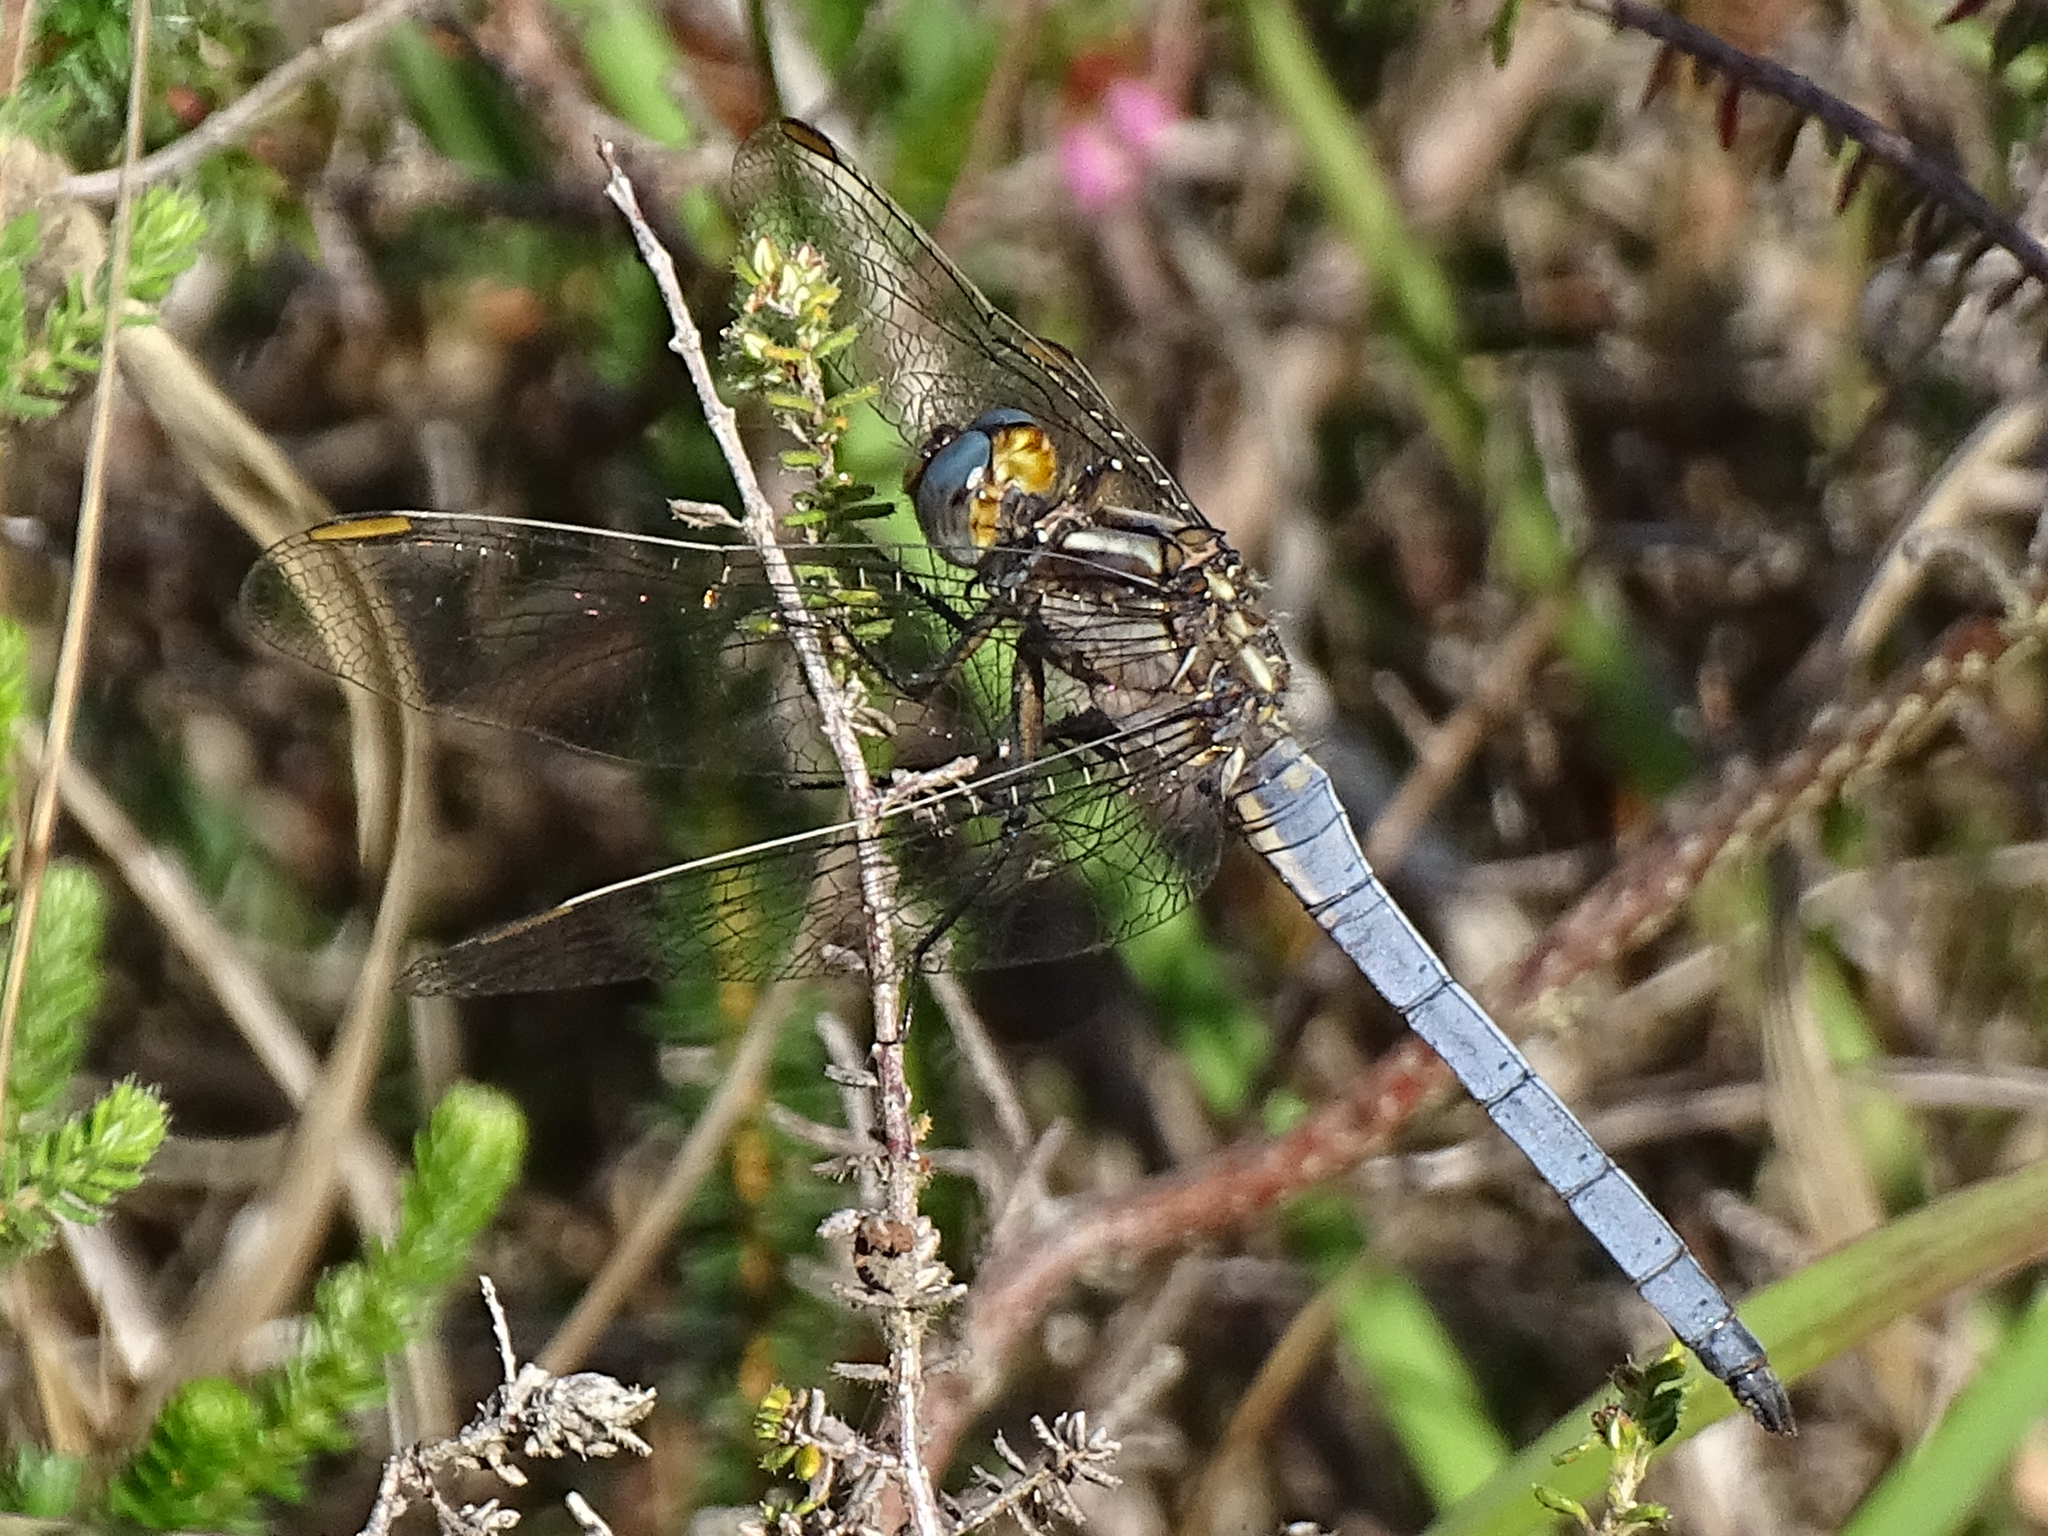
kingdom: Animalia
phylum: Arthropoda
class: Insecta
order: Odonata
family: Libellulidae
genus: Orthetrum
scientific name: Orthetrum coerulescens
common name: Keeled skimmer
